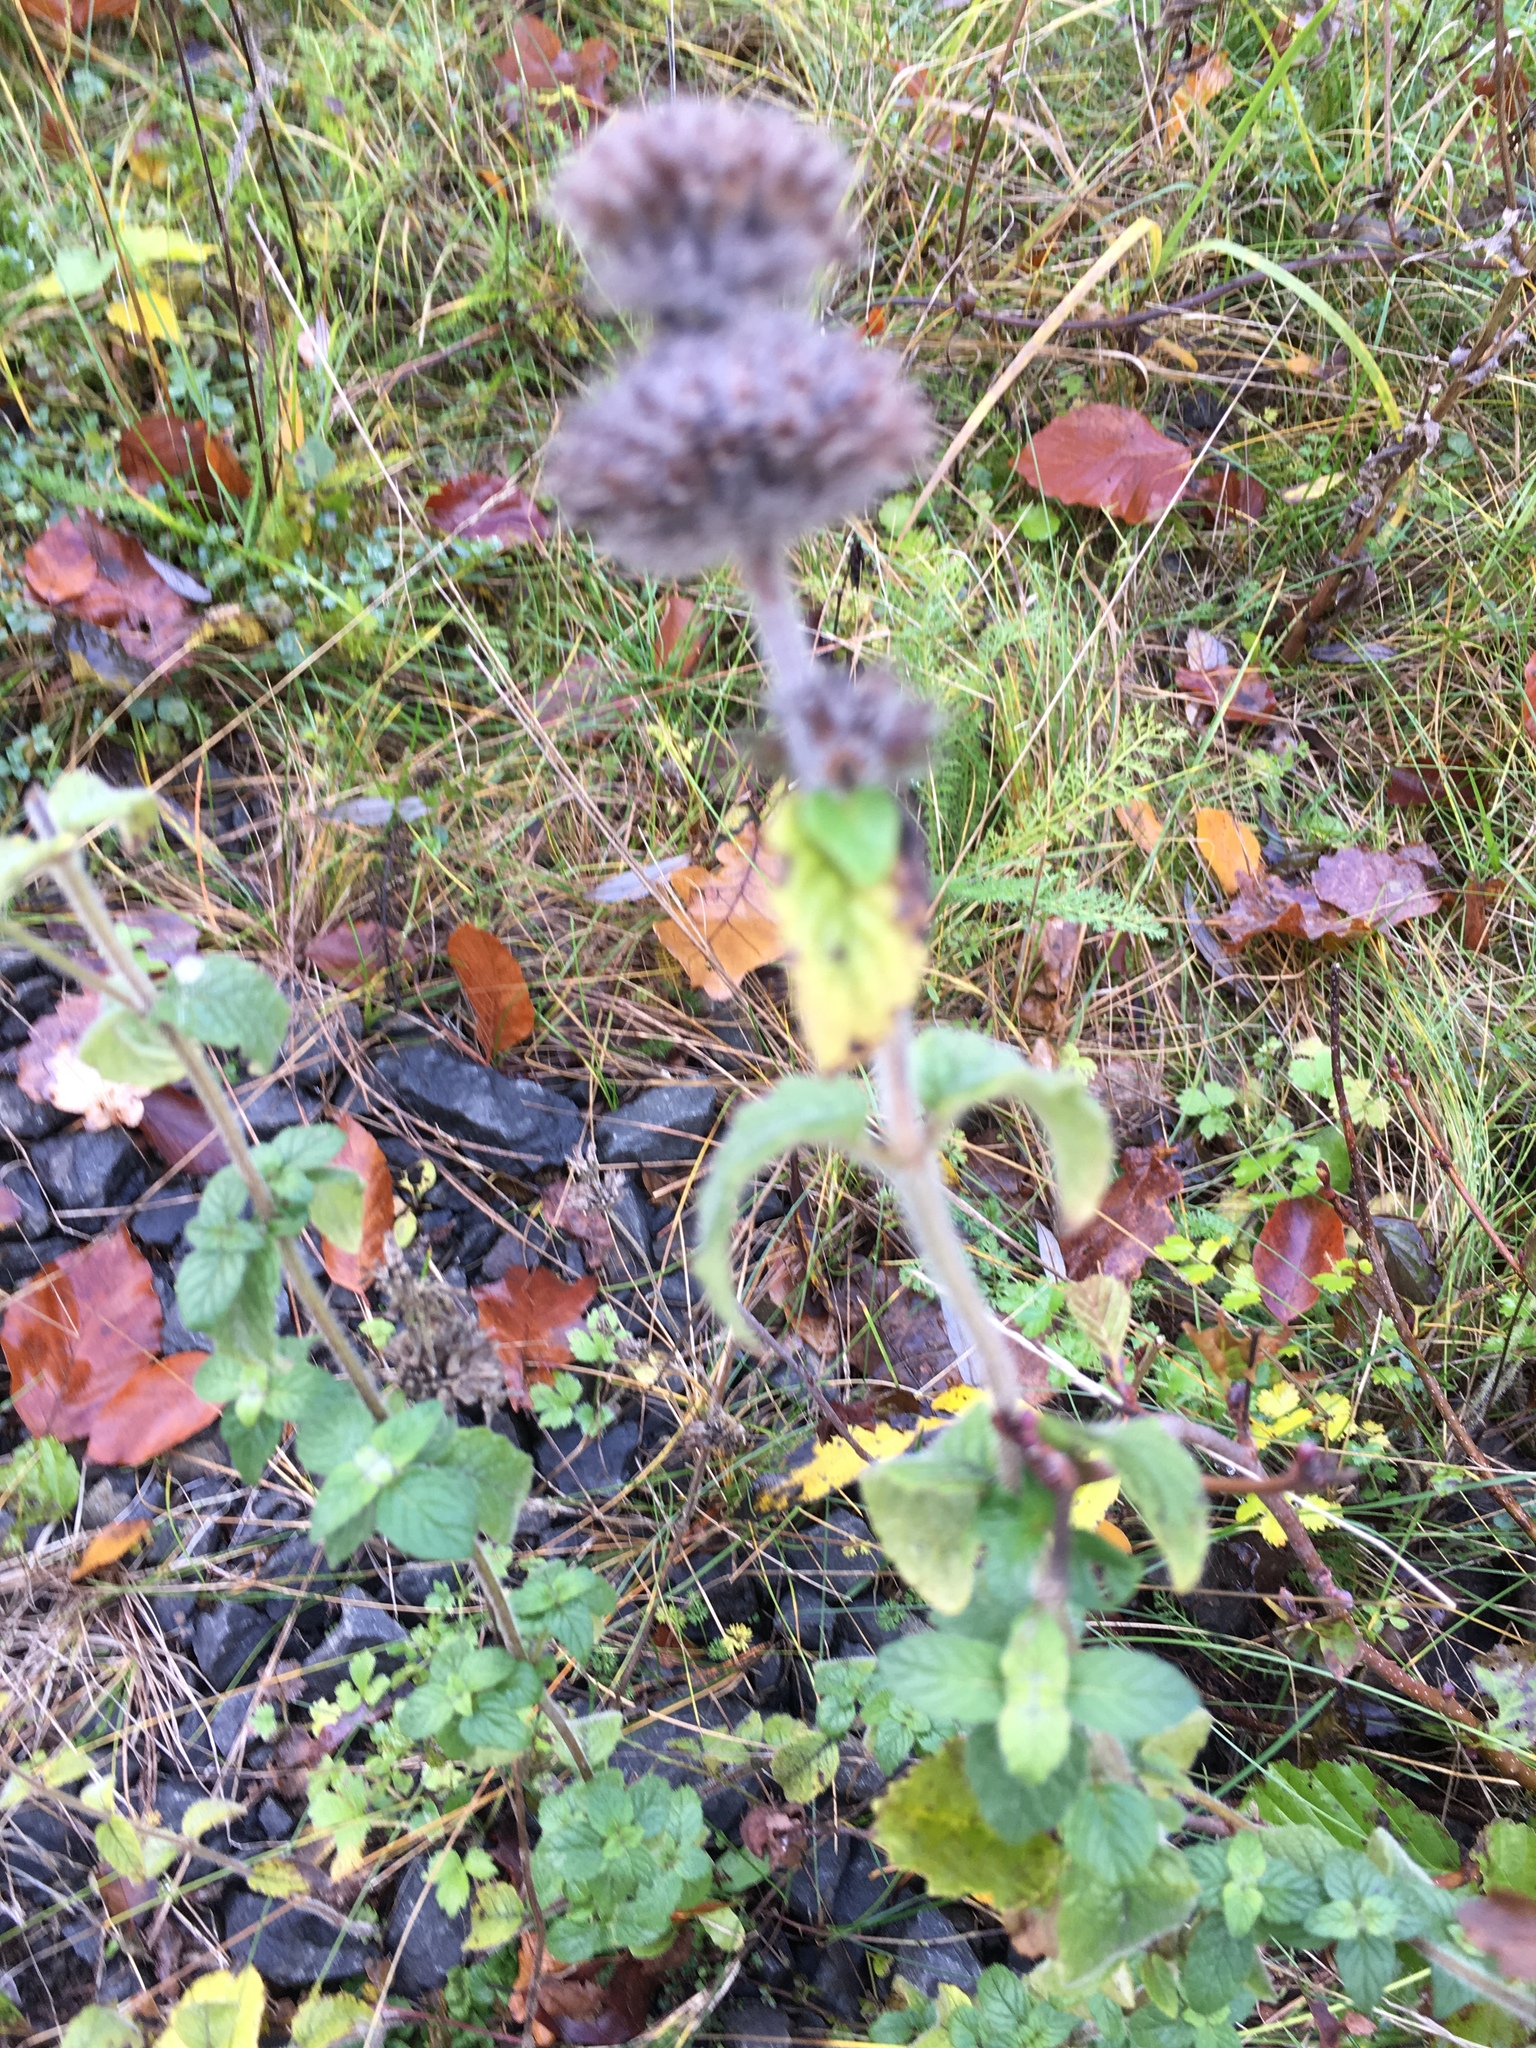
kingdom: Plantae
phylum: Tracheophyta
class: Magnoliopsida
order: Lamiales
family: Lamiaceae
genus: Clinopodium
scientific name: Clinopodium vulgare
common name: Wild basil
